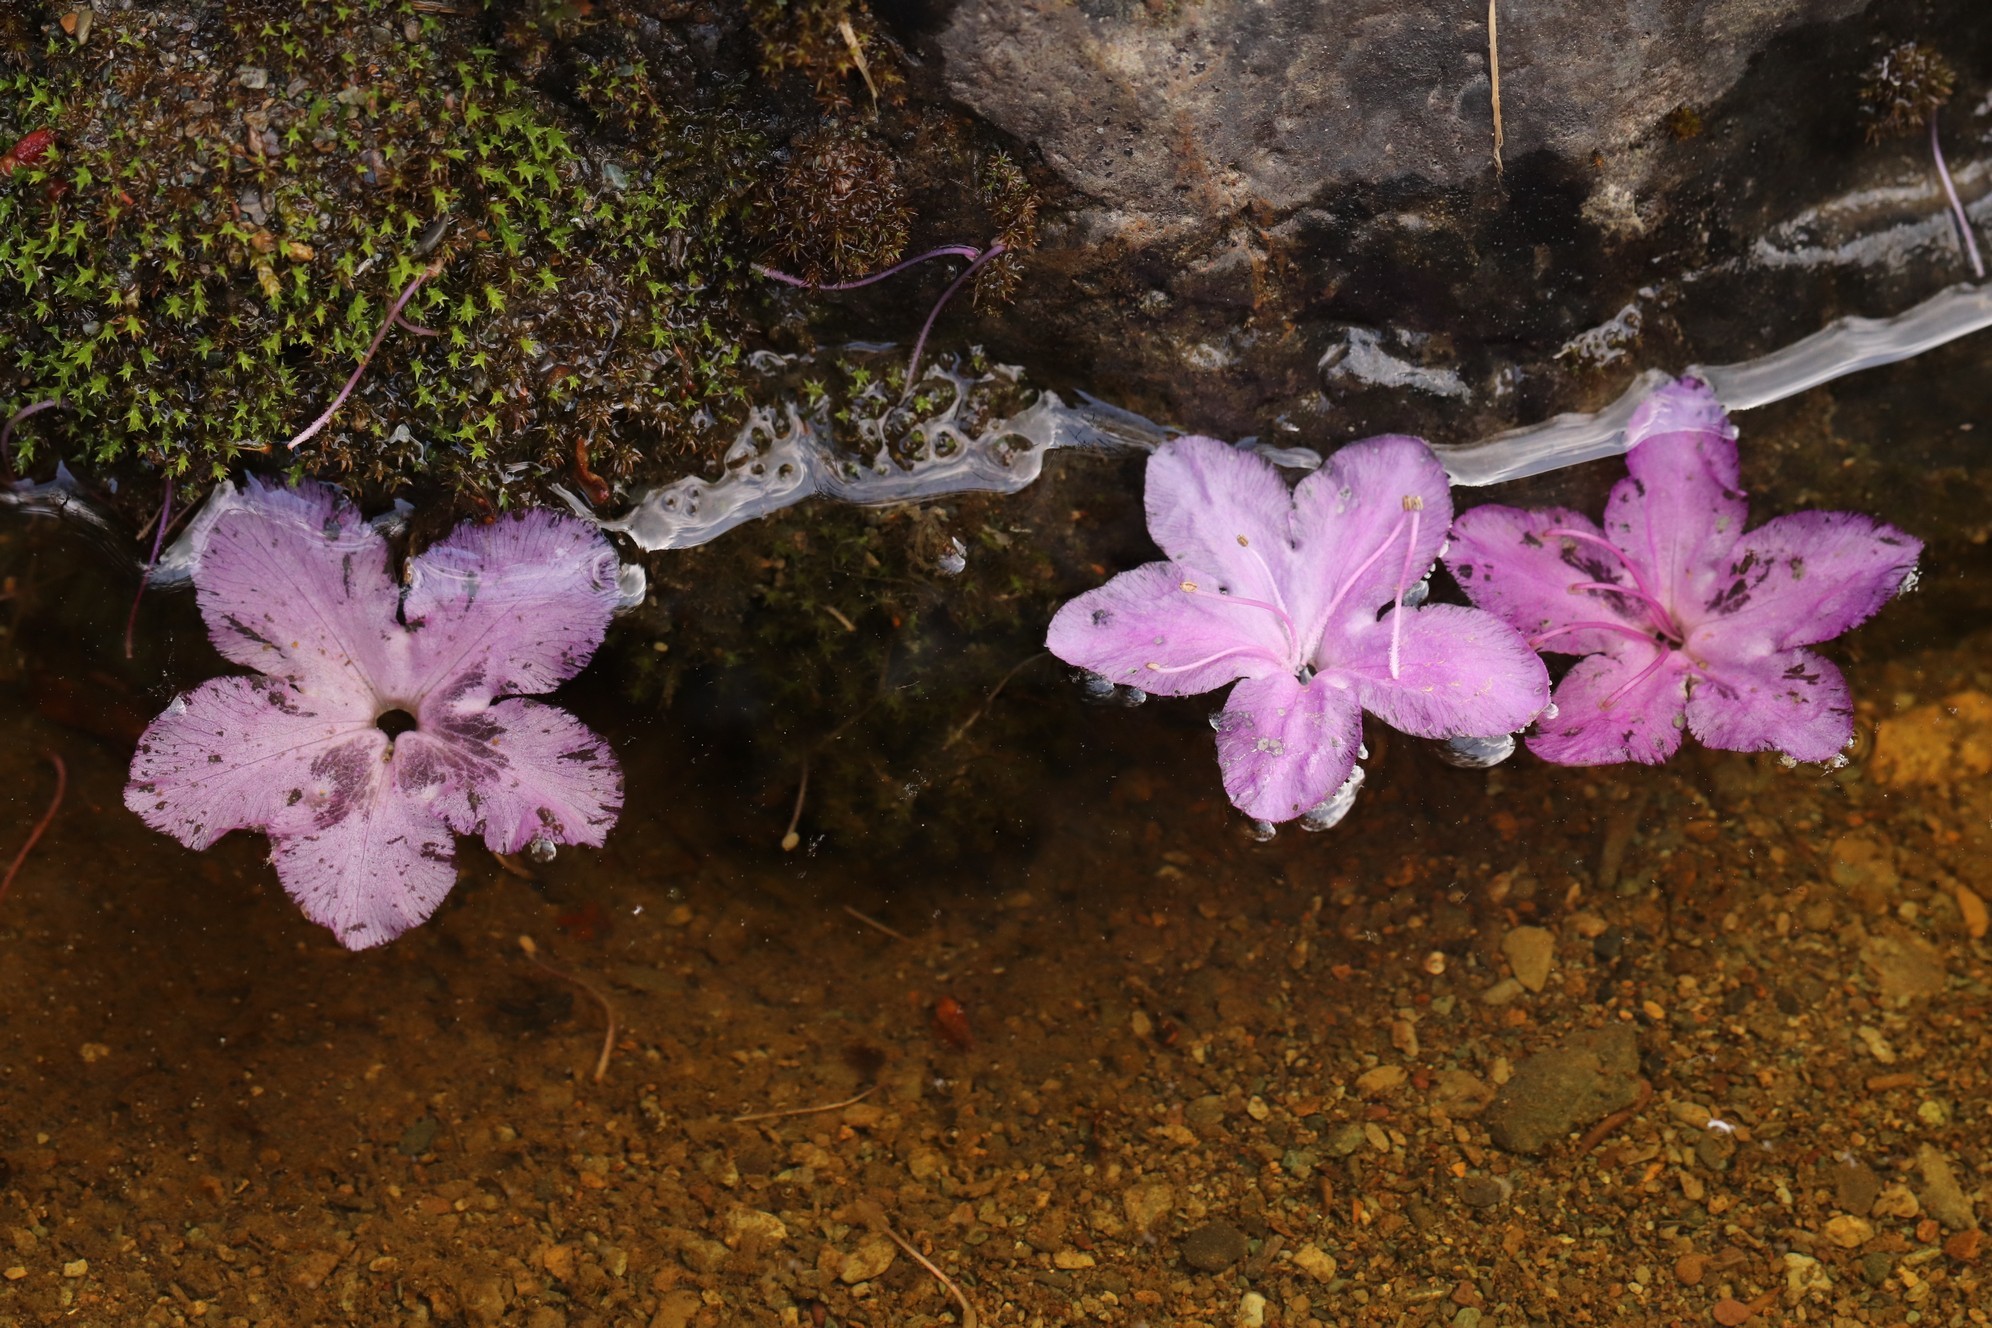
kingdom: Plantae
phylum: Tracheophyta
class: Magnoliopsida
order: Ericales
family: Ericaceae
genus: Rhododendron
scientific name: Rhododendron dauricum
